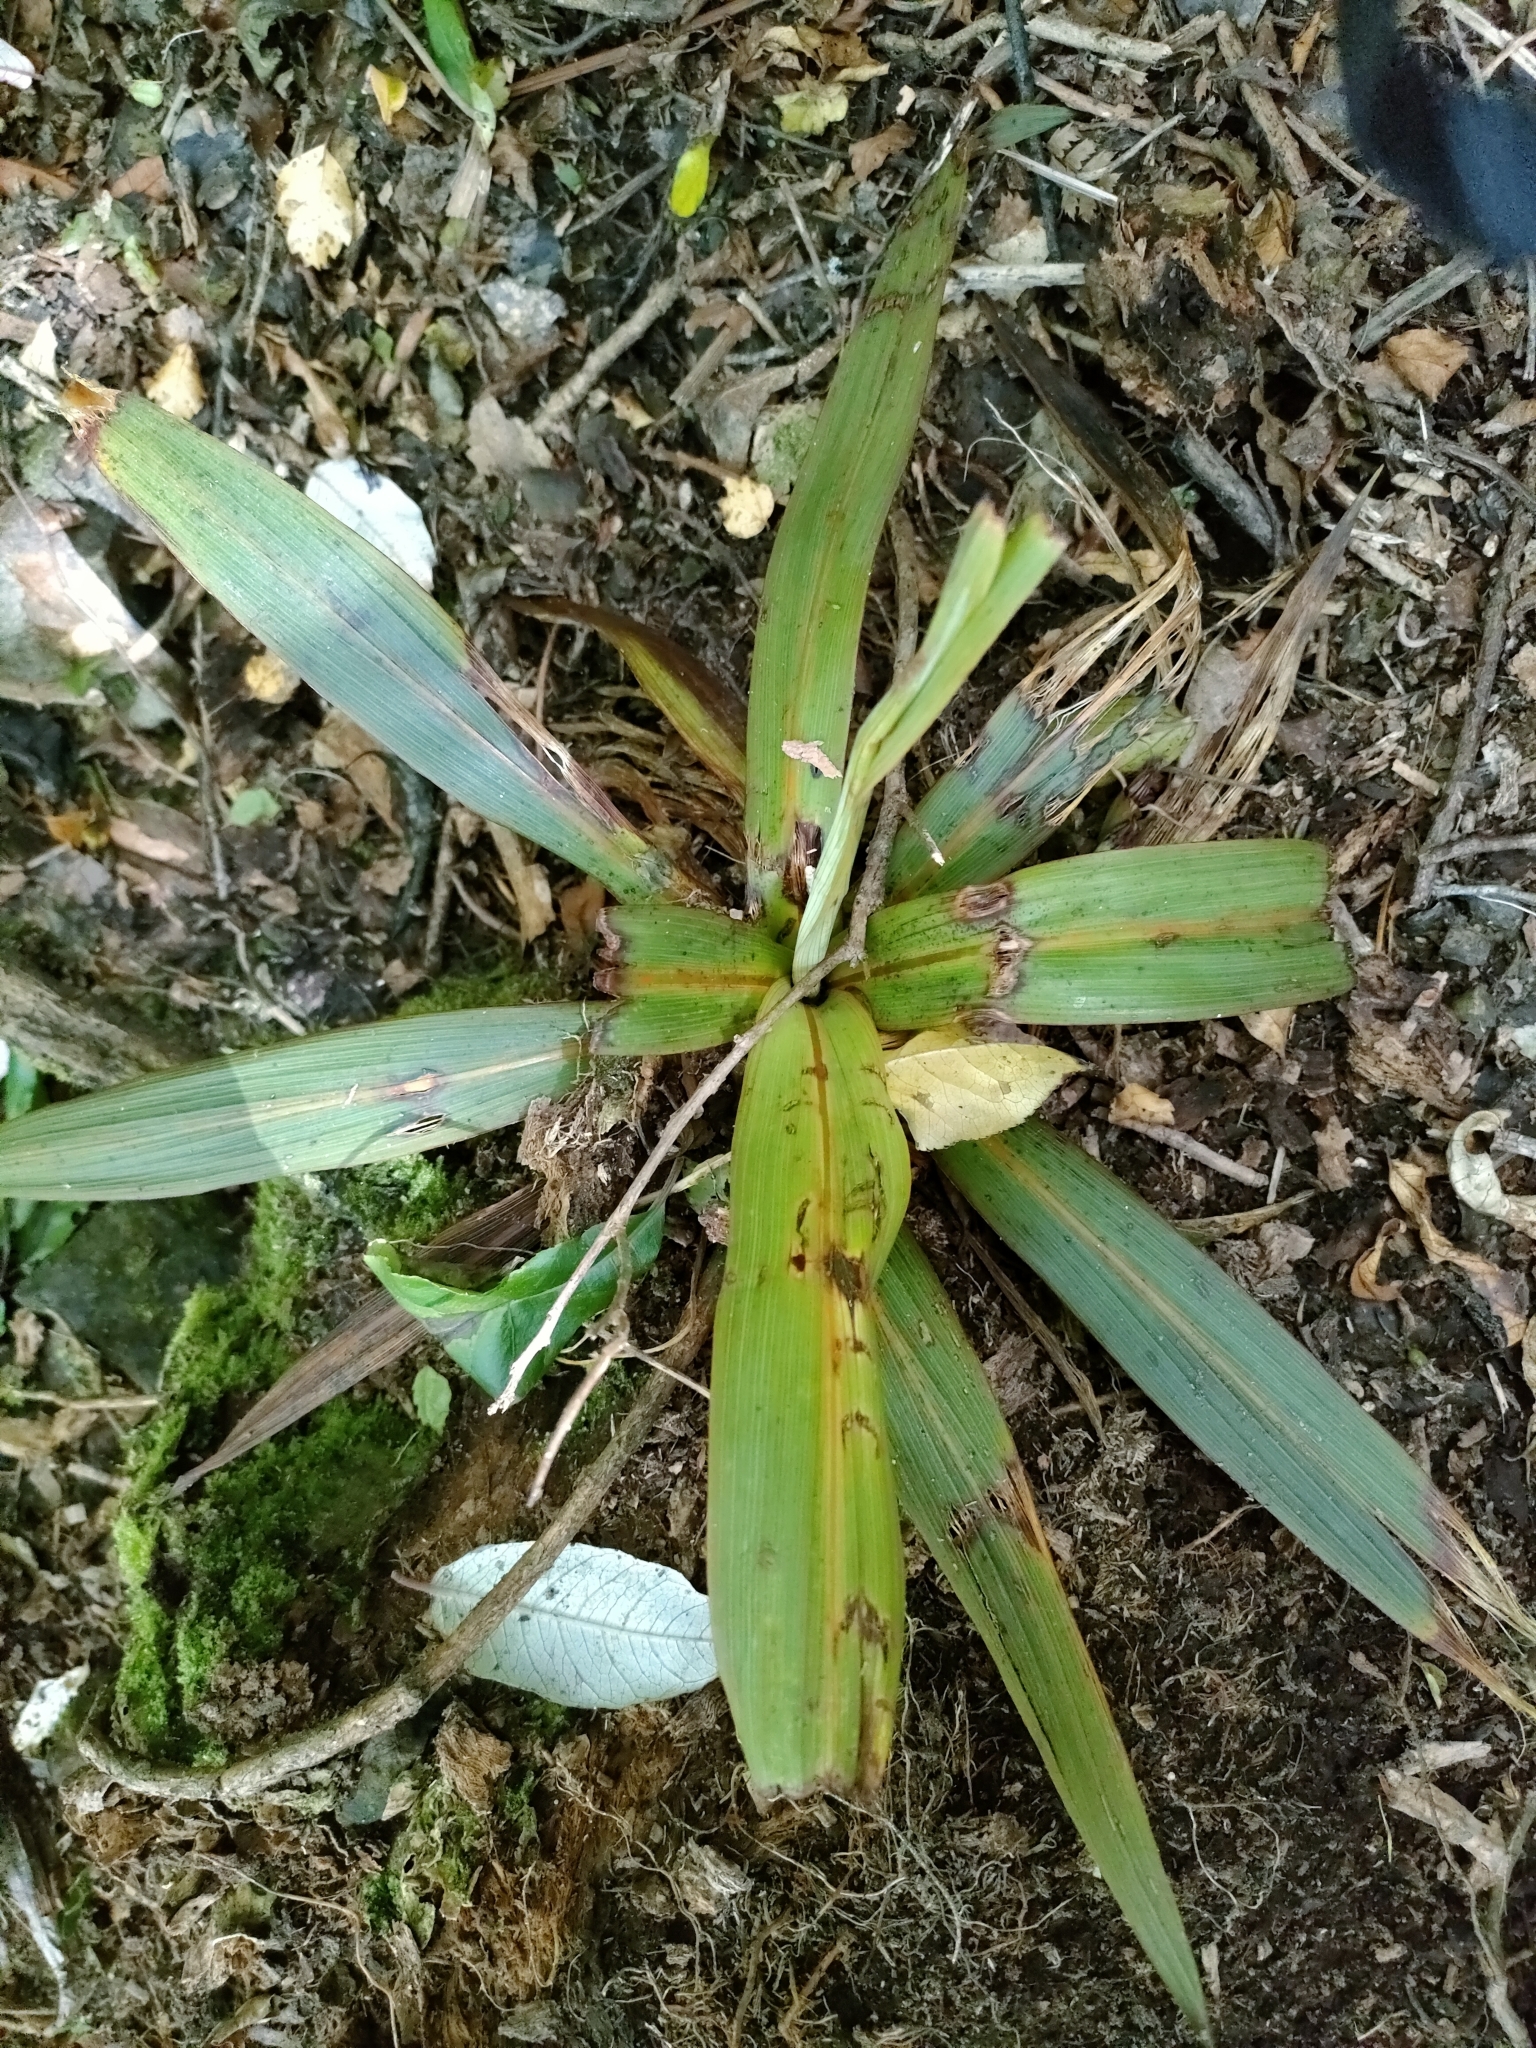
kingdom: Plantae
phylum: Tracheophyta
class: Liliopsida
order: Asparagales
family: Asparagaceae
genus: Cordyline
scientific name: Cordyline indivisa
